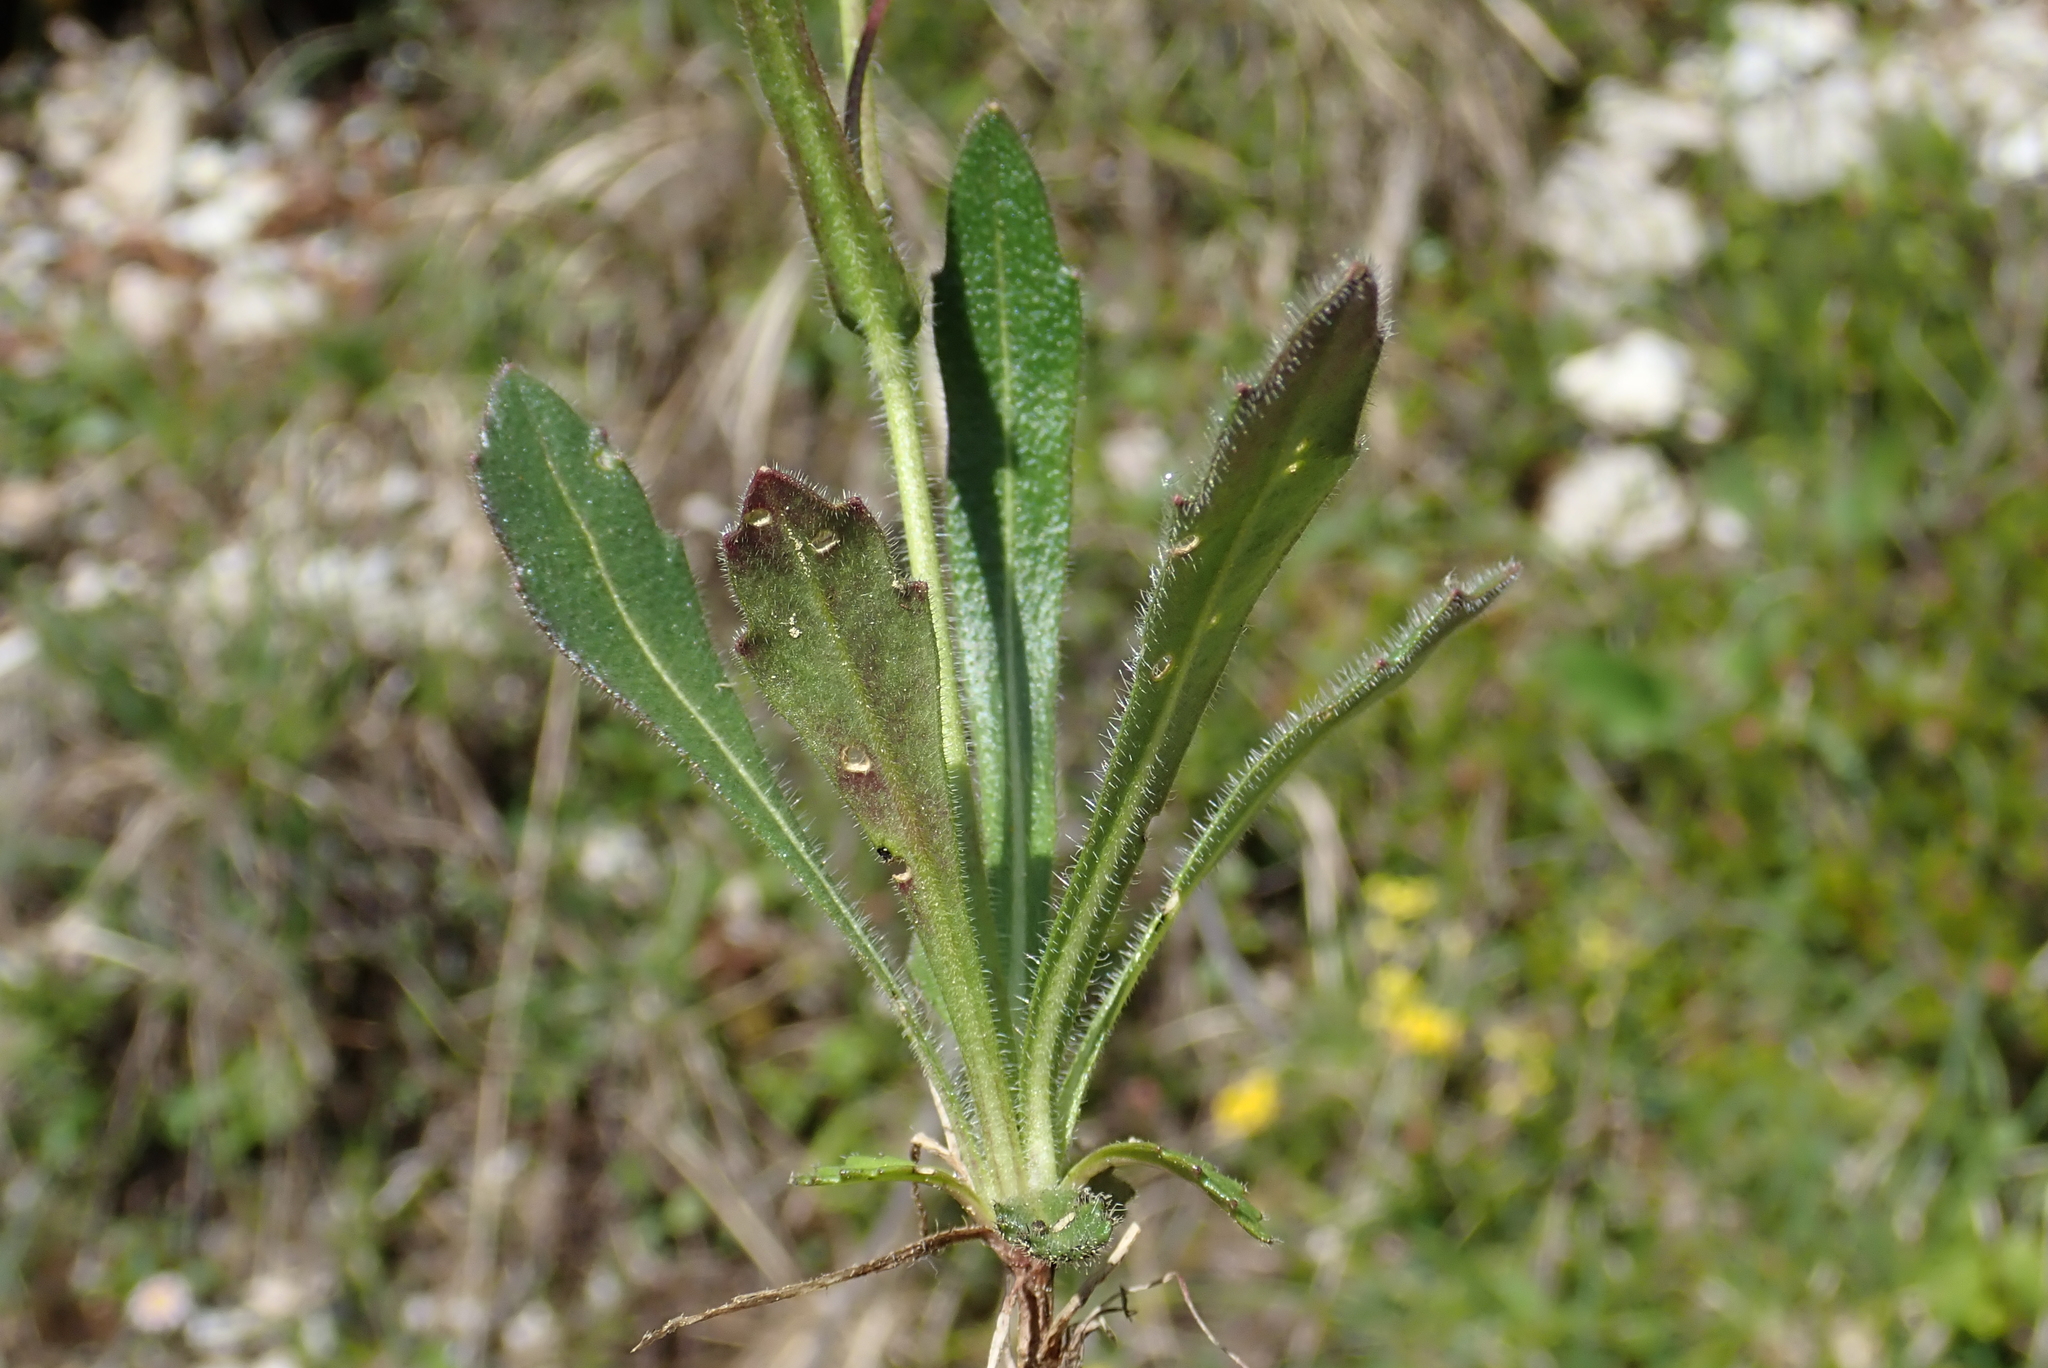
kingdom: Plantae
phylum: Tracheophyta
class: Magnoliopsida
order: Brassicales
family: Brassicaceae
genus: Biscutella
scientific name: Biscutella laevigata
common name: Buckler mustard
